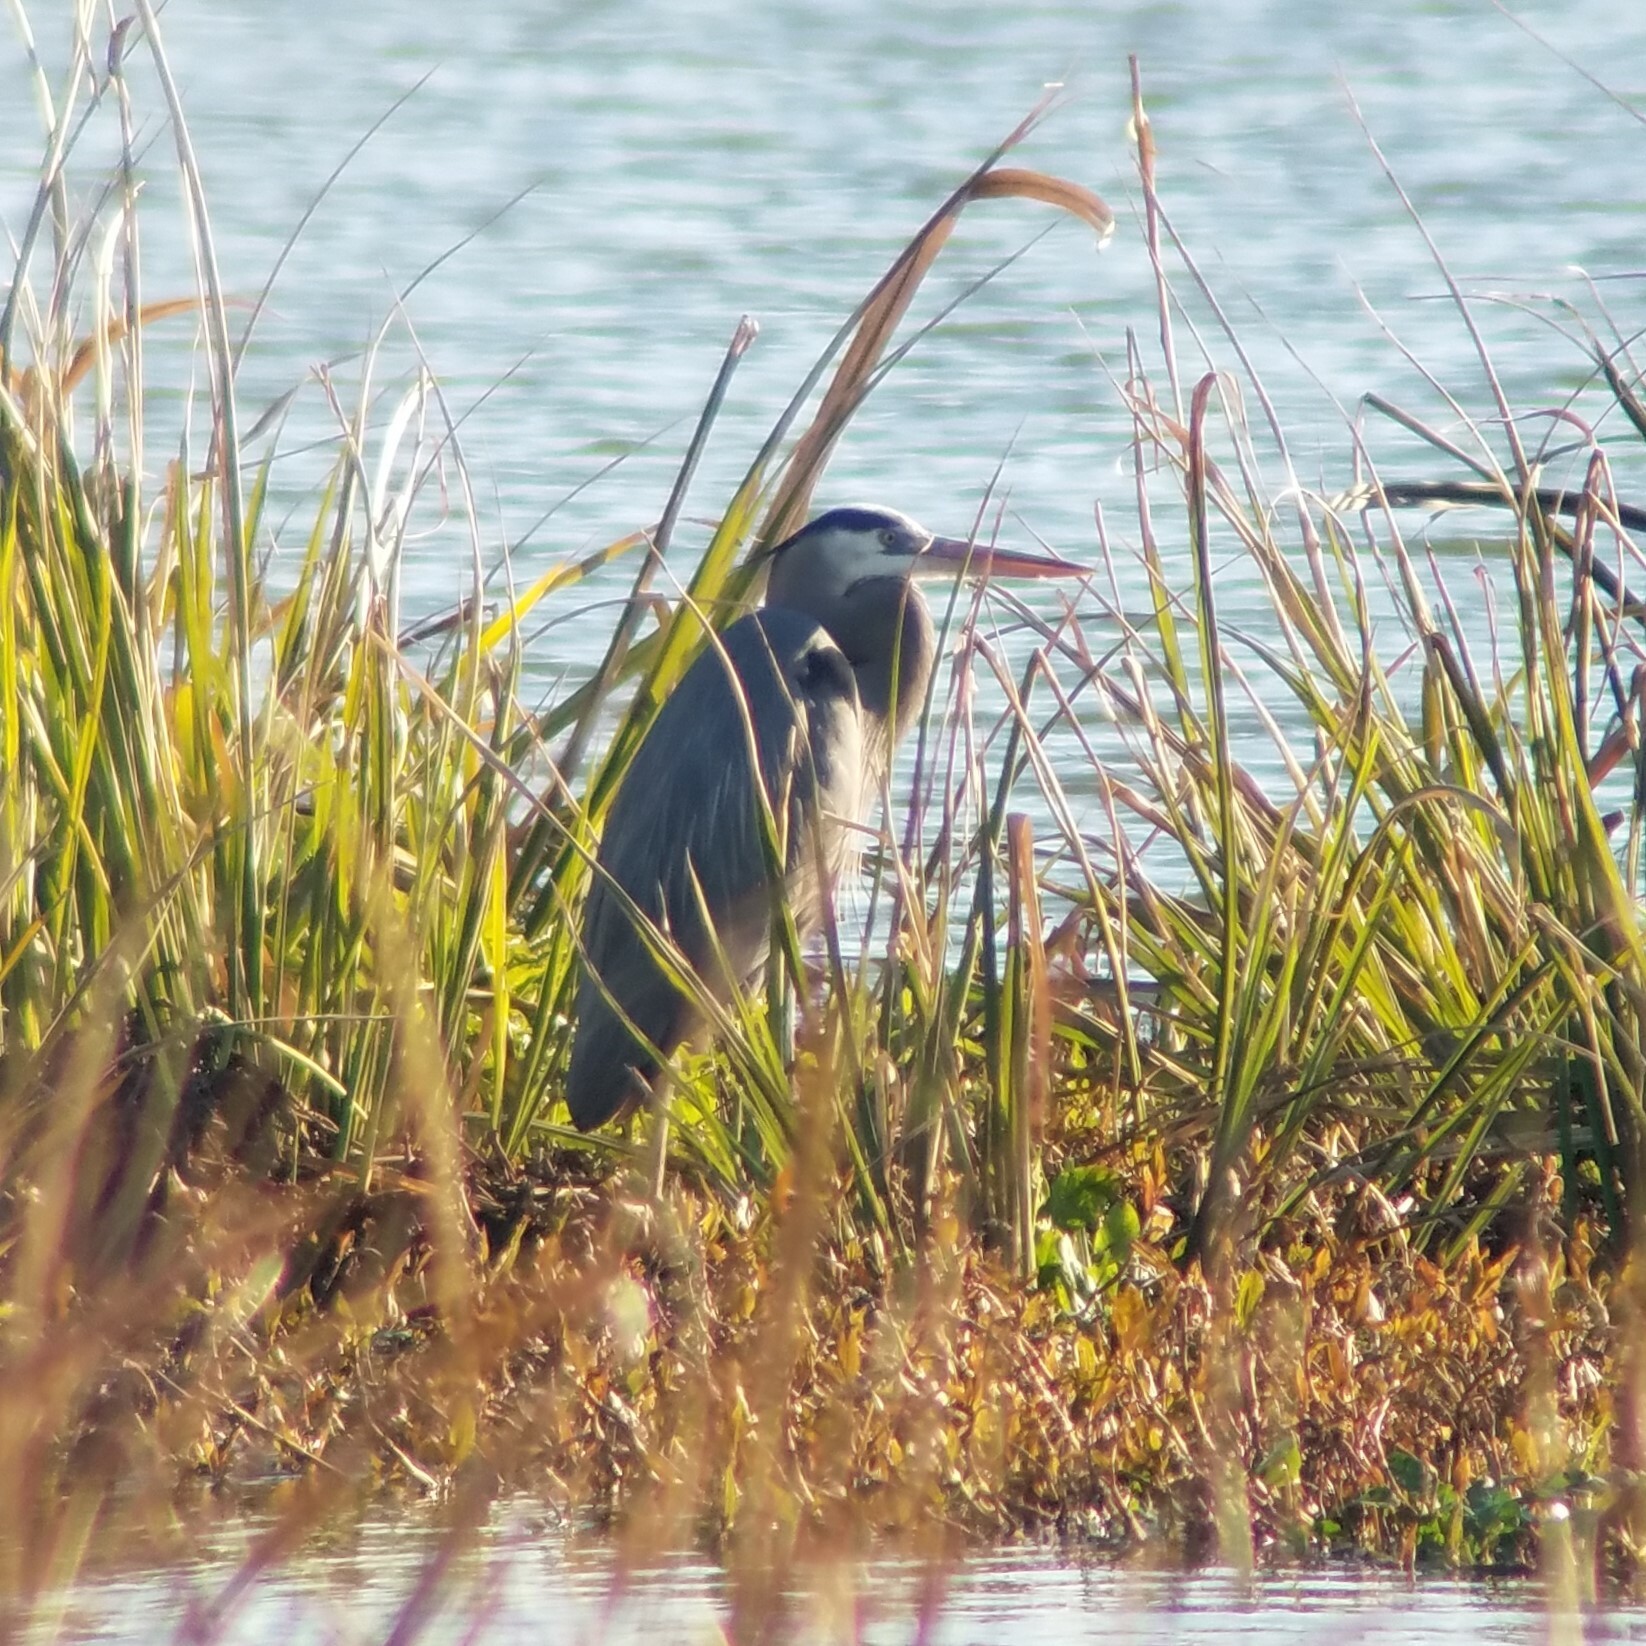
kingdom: Animalia
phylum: Chordata
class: Aves
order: Pelecaniformes
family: Ardeidae
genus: Ardea
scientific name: Ardea herodias
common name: Great blue heron
